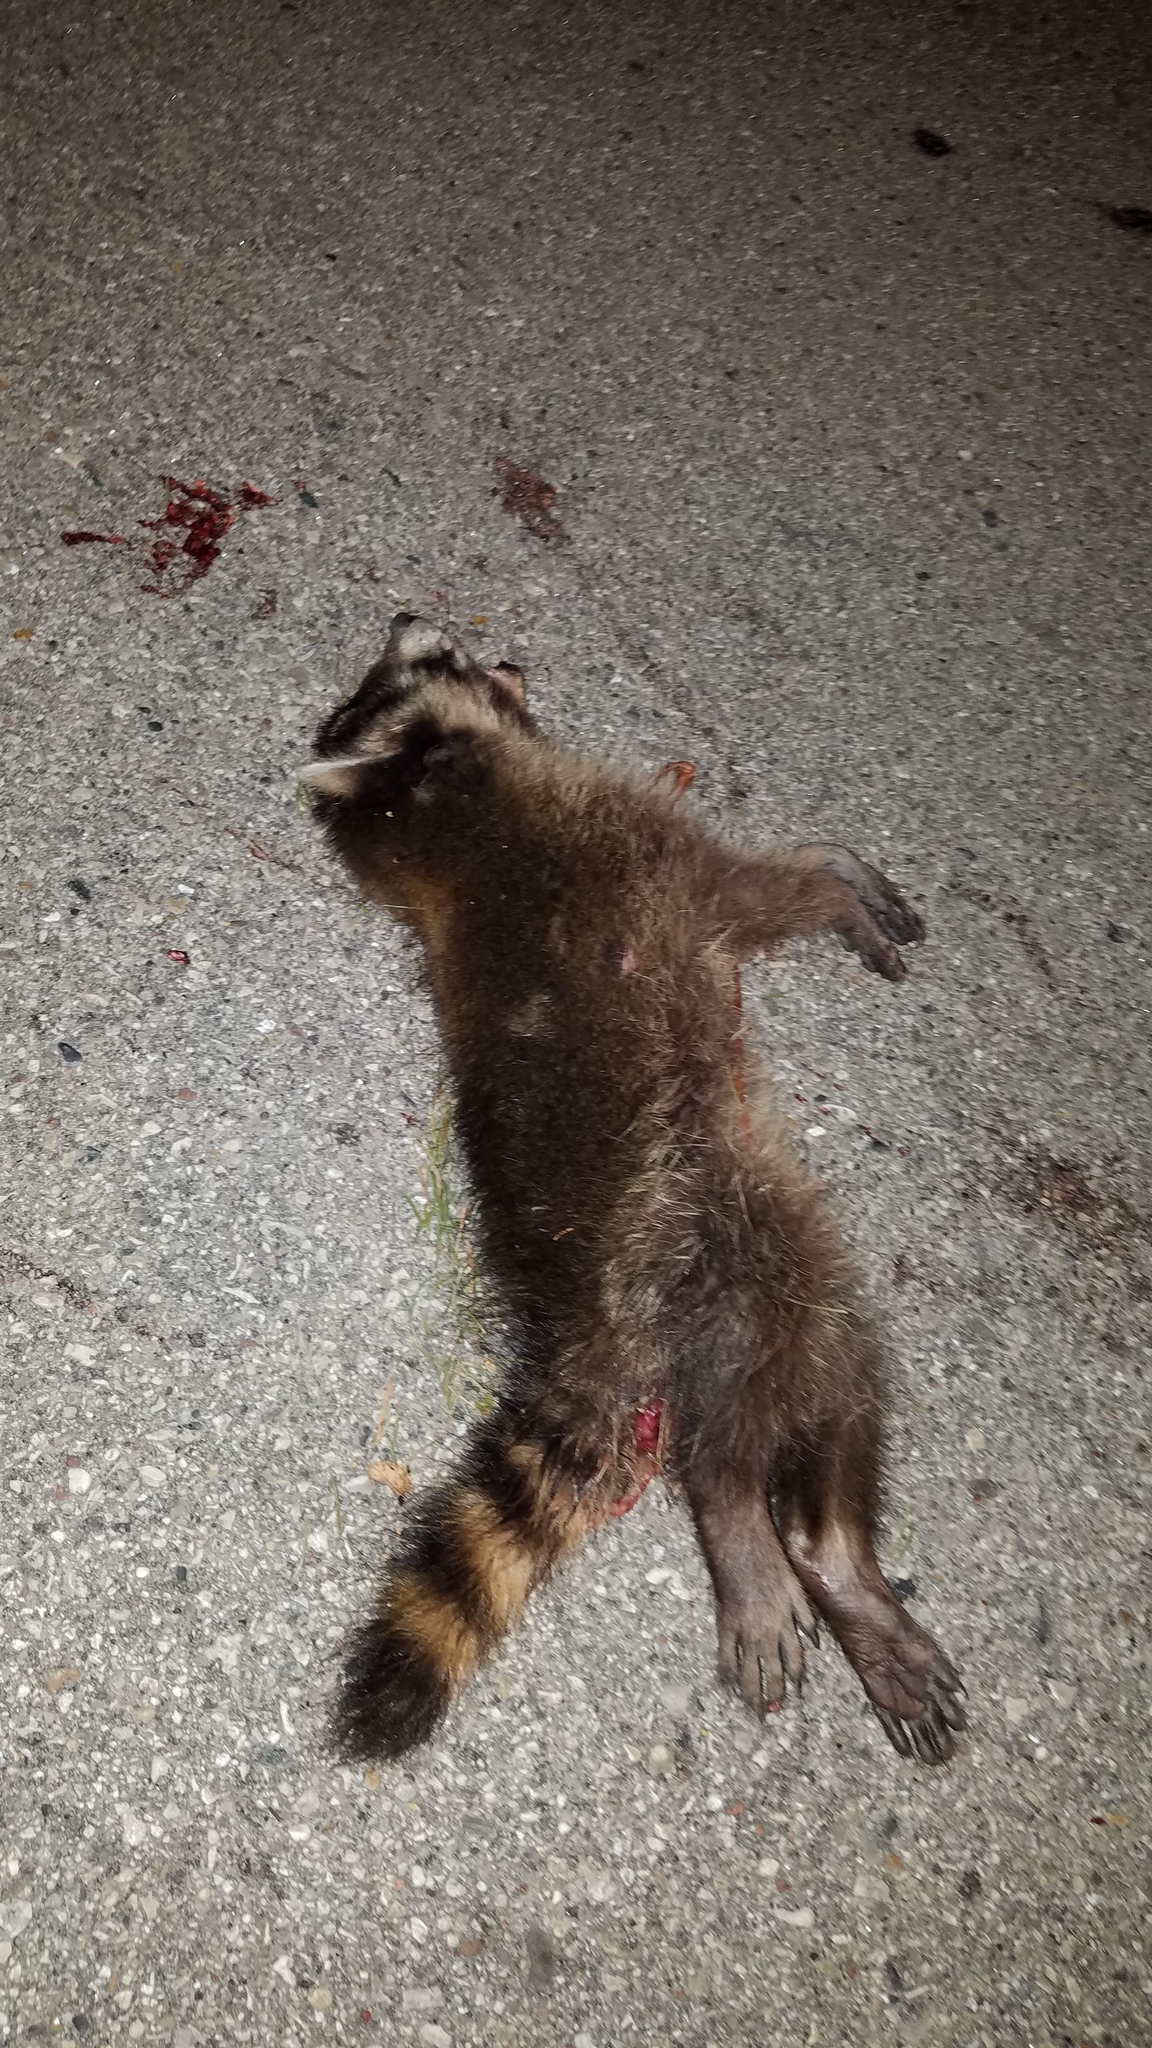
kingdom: Animalia
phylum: Chordata
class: Mammalia
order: Carnivora
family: Procyonidae
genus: Procyon
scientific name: Procyon lotor
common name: Raccoon
